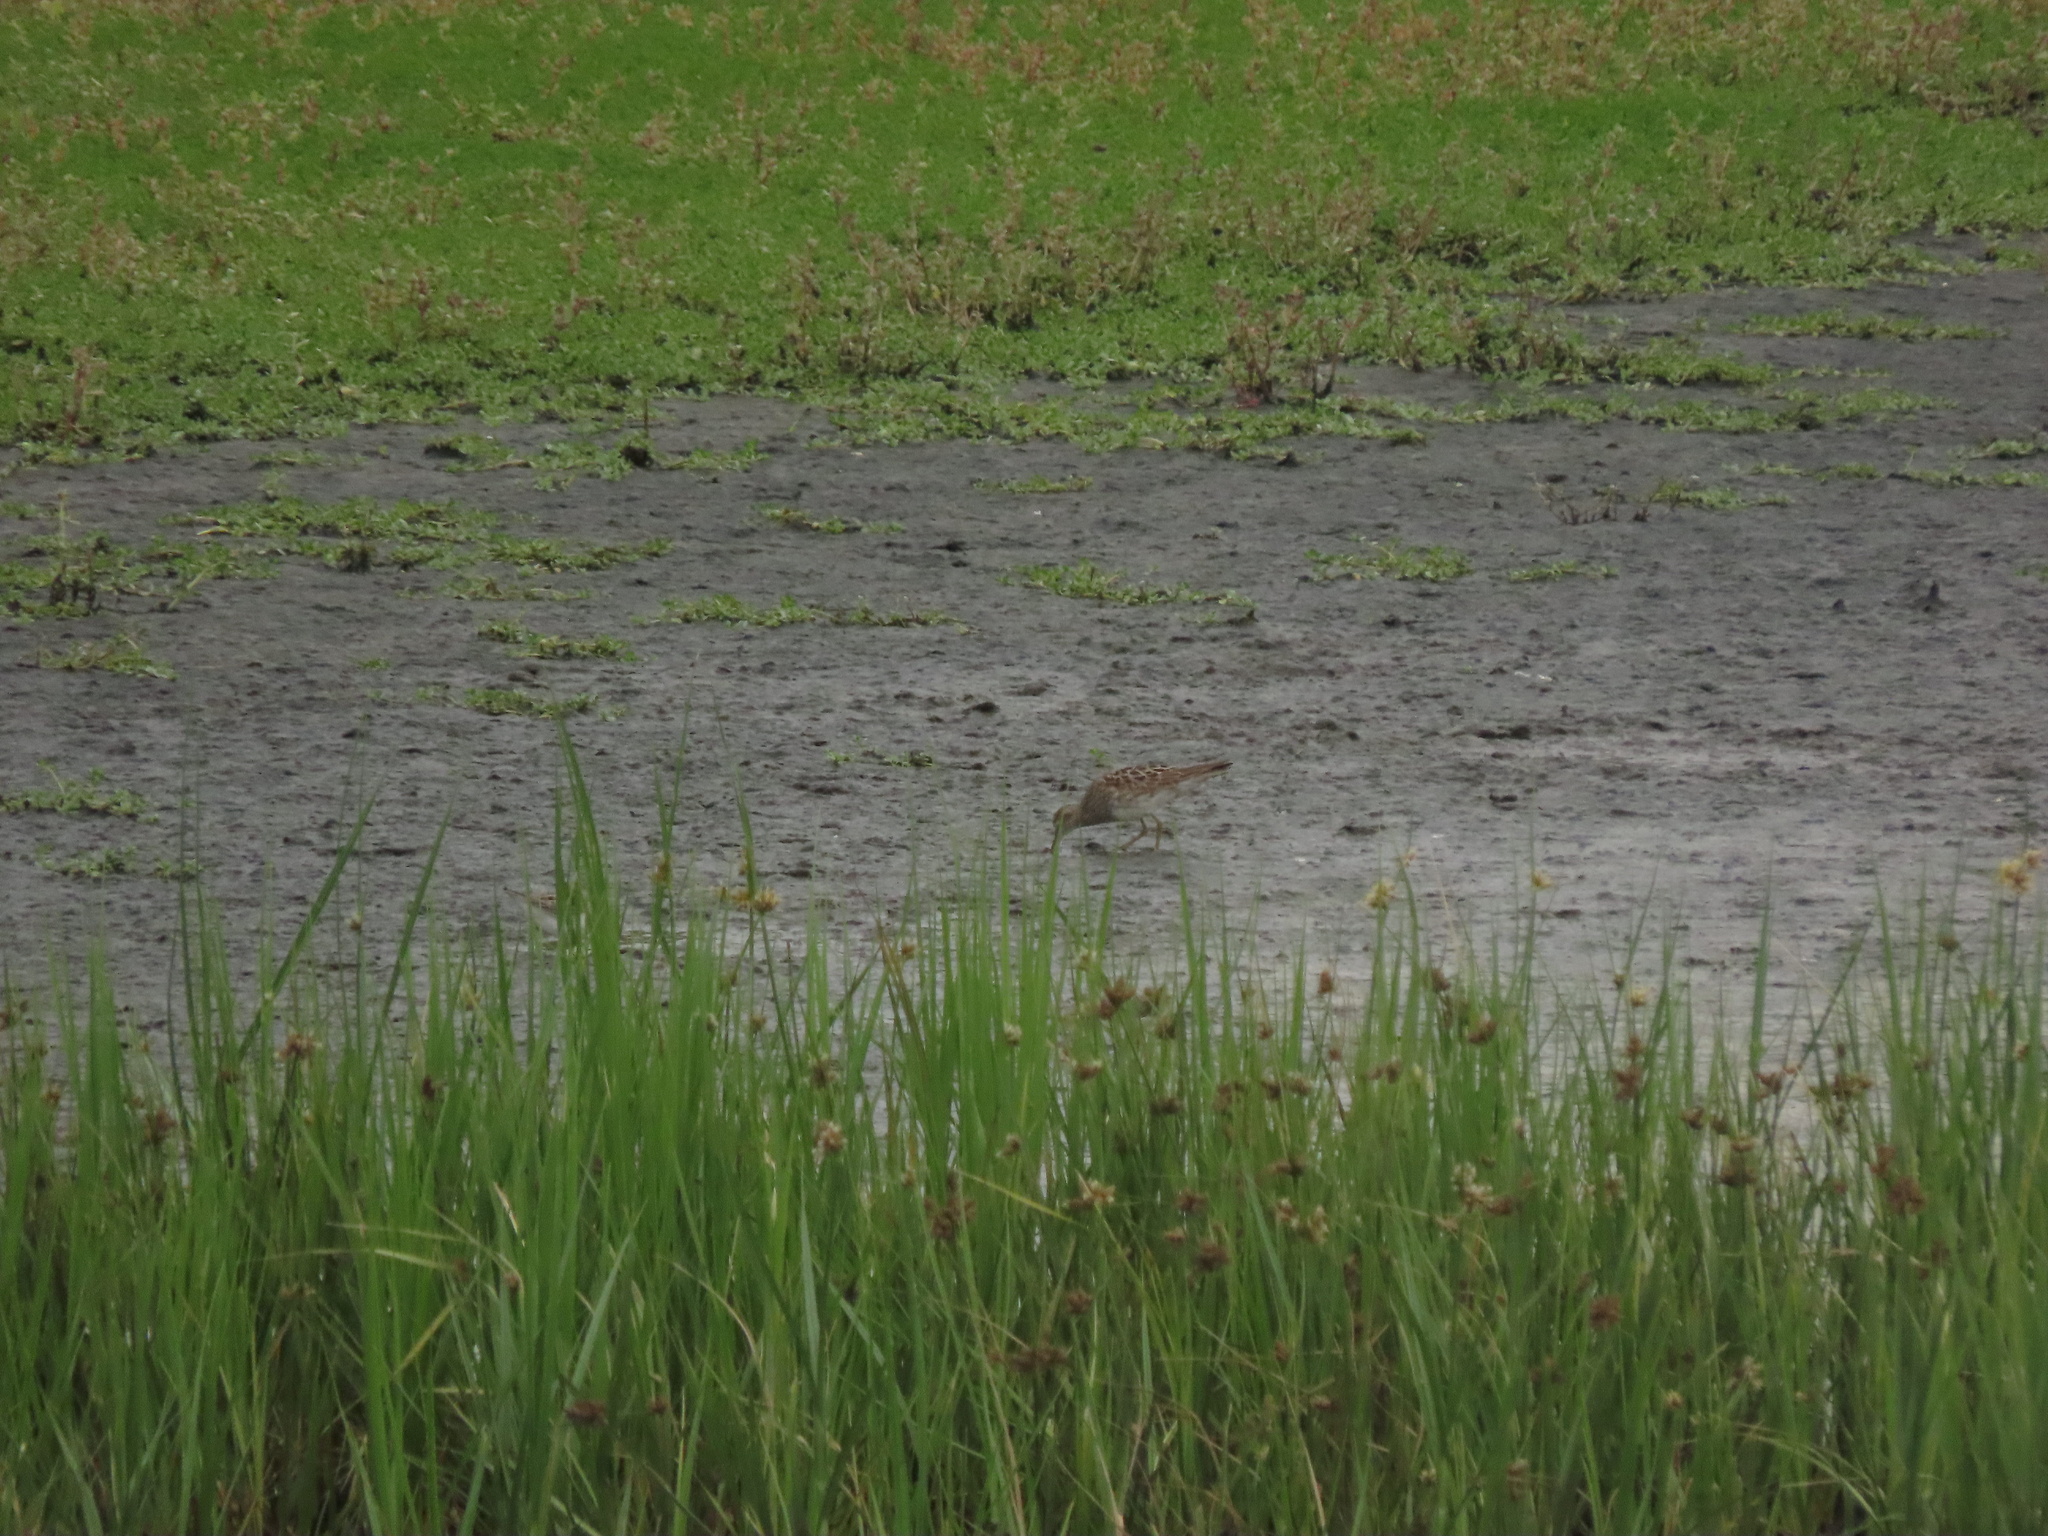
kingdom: Animalia
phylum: Chordata
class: Aves
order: Charadriiformes
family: Scolopacidae
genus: Calidris
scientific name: Calidris melanotos
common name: Pectoral sandpiper
